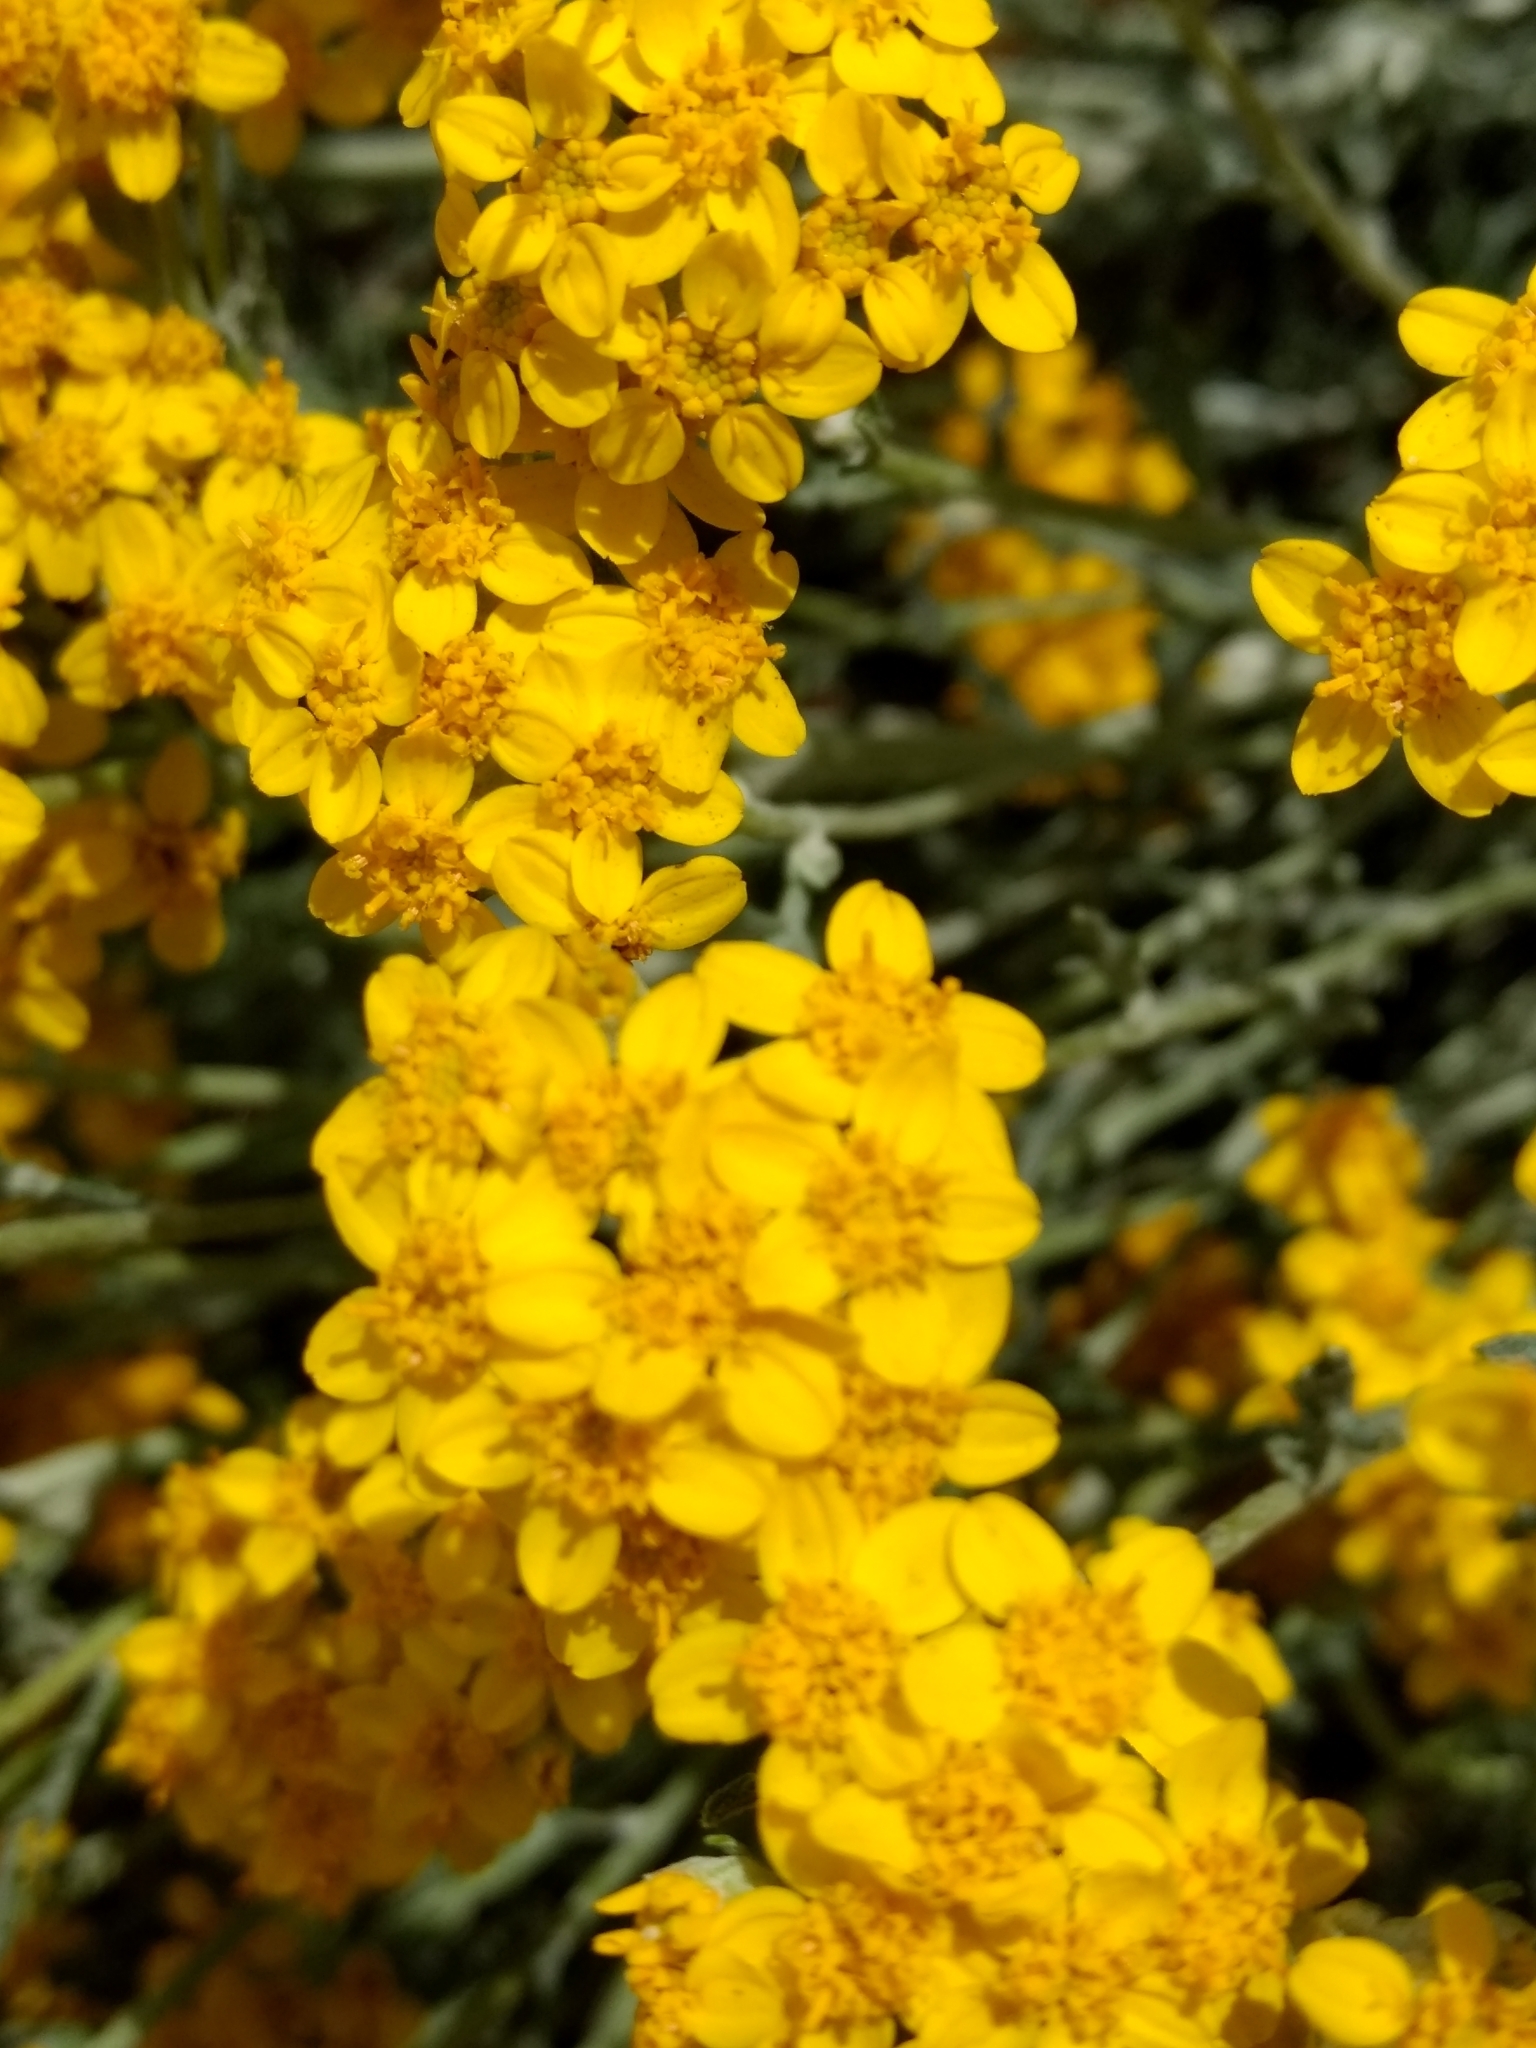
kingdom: Plantae
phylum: Tracheophyta
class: Magnoliopsida
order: Asterales
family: Asteraceae
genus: Eriophyllum
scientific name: Eriophyllum confertiflorum
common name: Golden-yarrow
